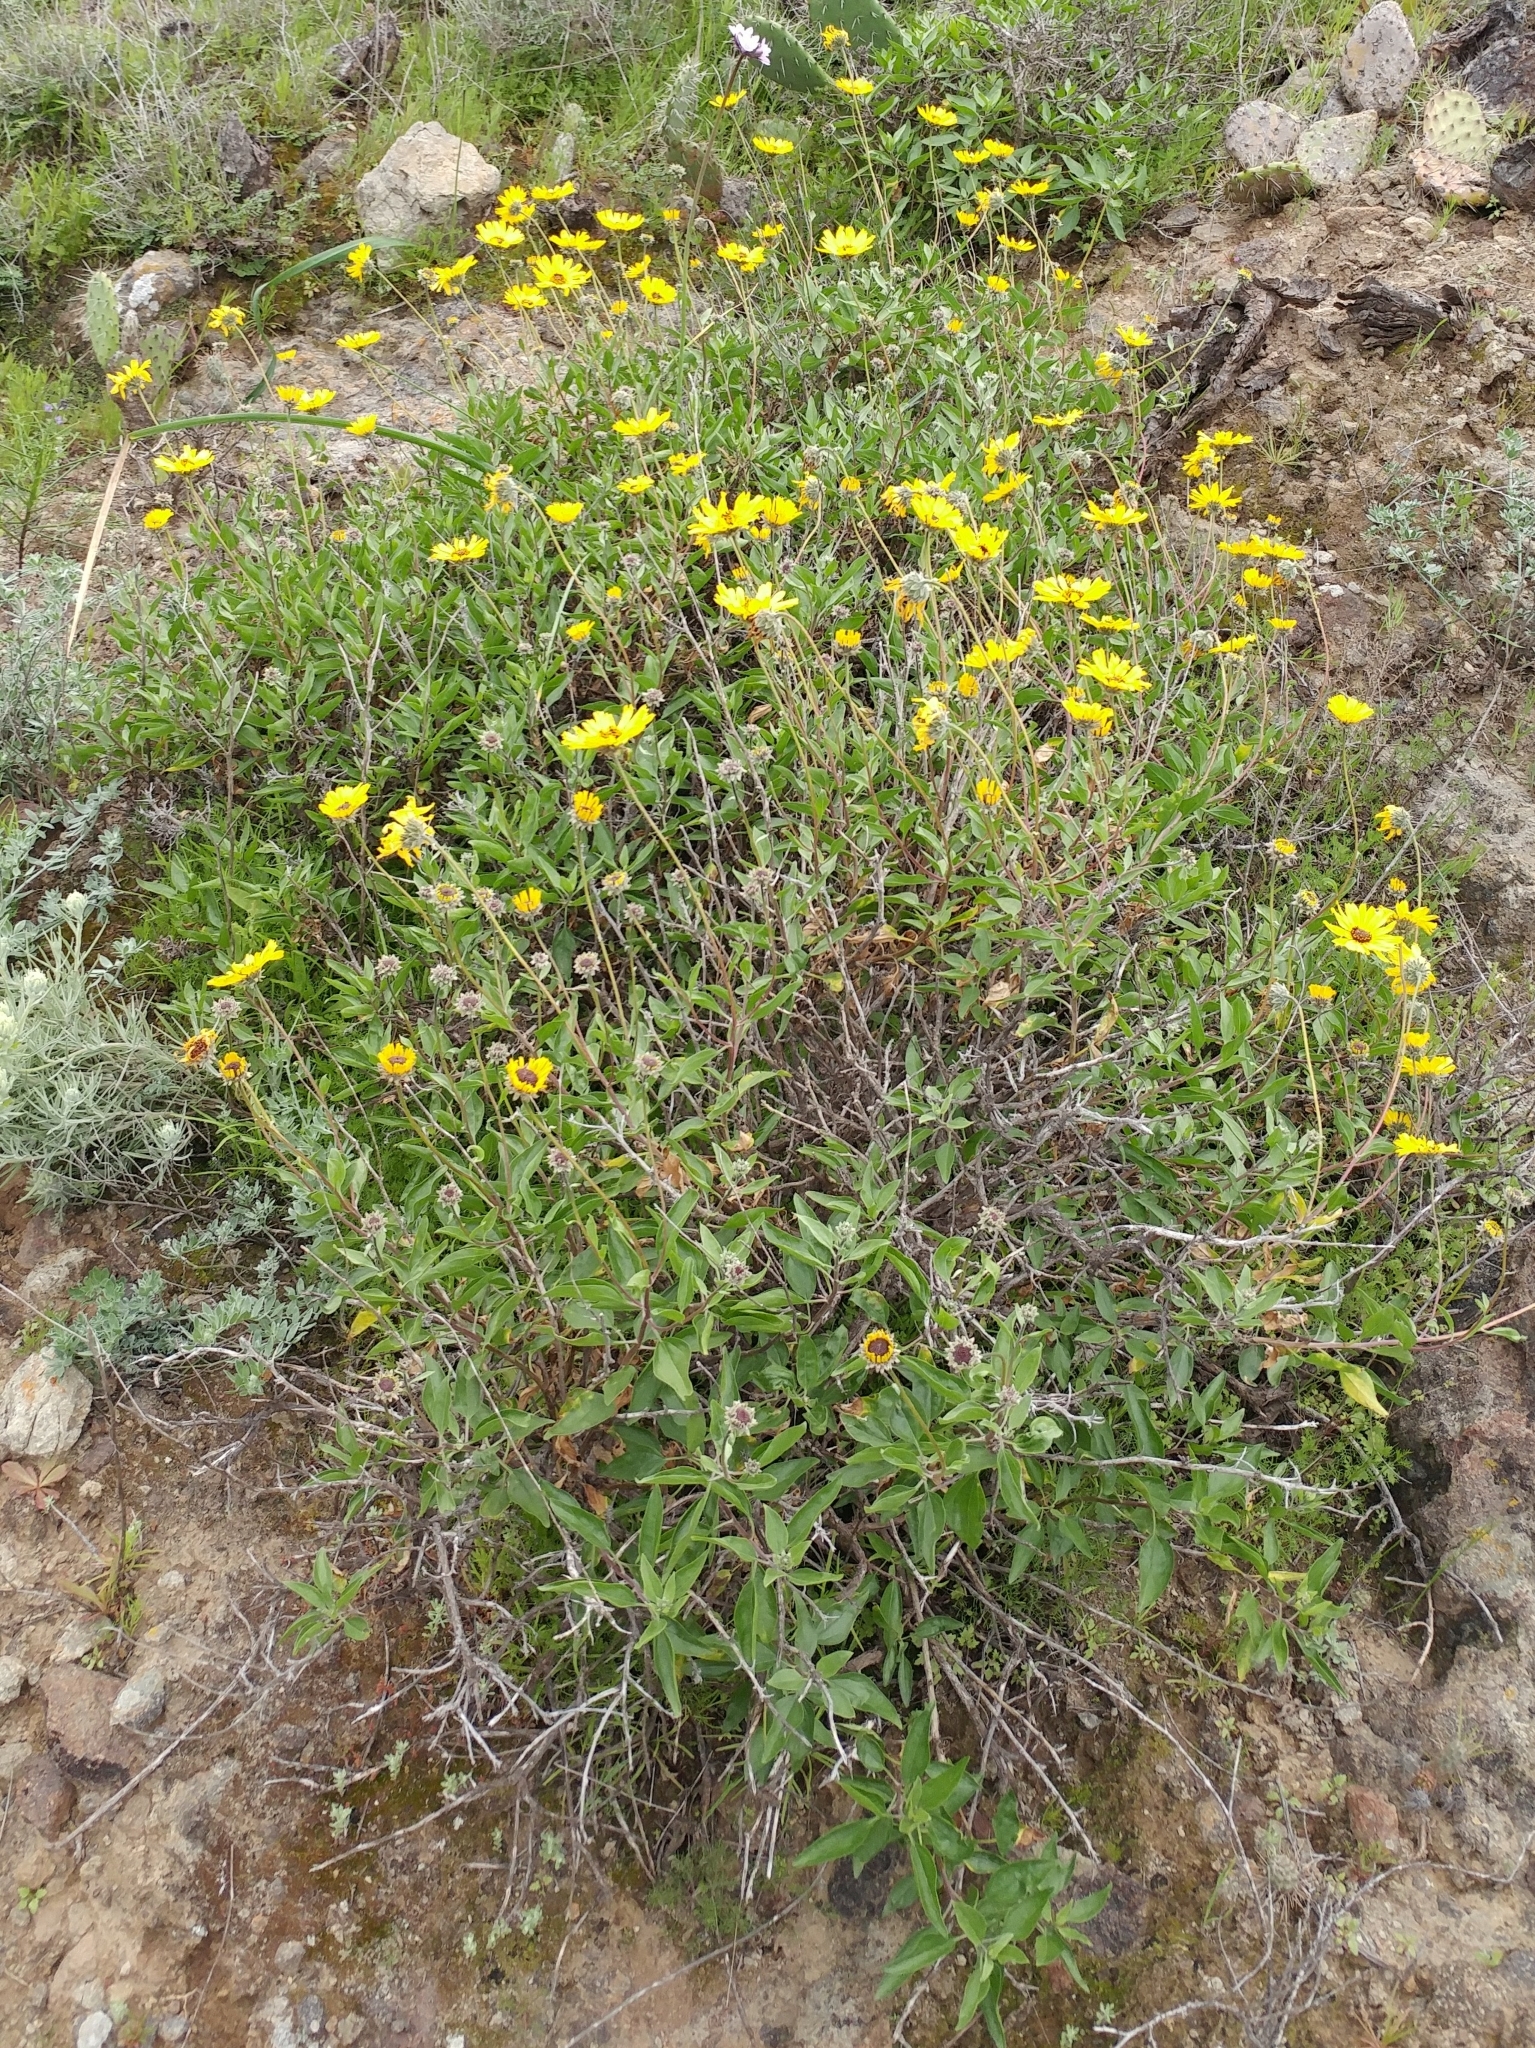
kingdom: Plantae
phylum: Tracheophyta
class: Magnoliopsida
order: Asterales
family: Asteraceae
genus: Encelia
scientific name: Encelia californica
